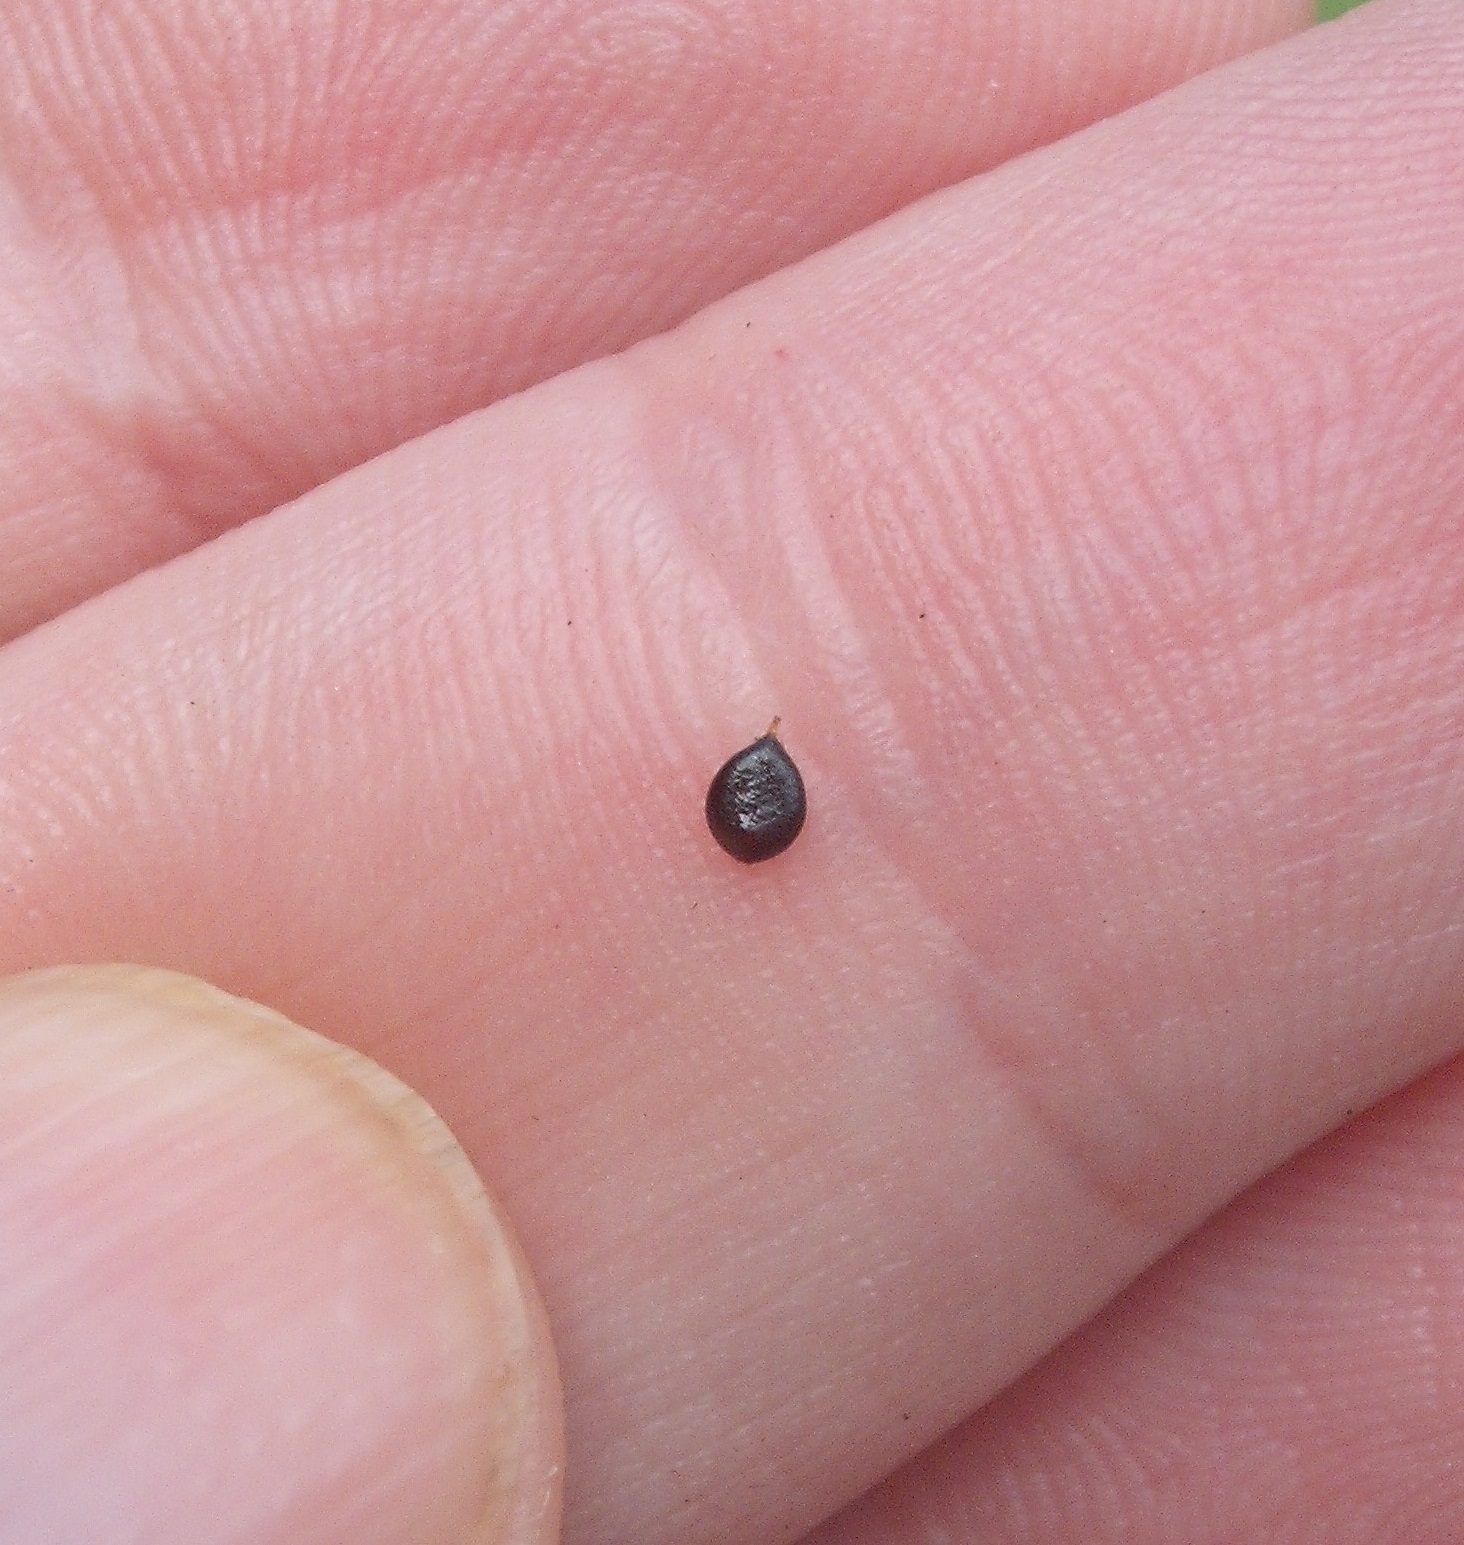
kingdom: Plantae
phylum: Tracheophyta
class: Magnoliopsida
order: Caryophyllales
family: Polygonaceae
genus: Persicaria
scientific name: Persicaria maculosa
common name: Redshank
